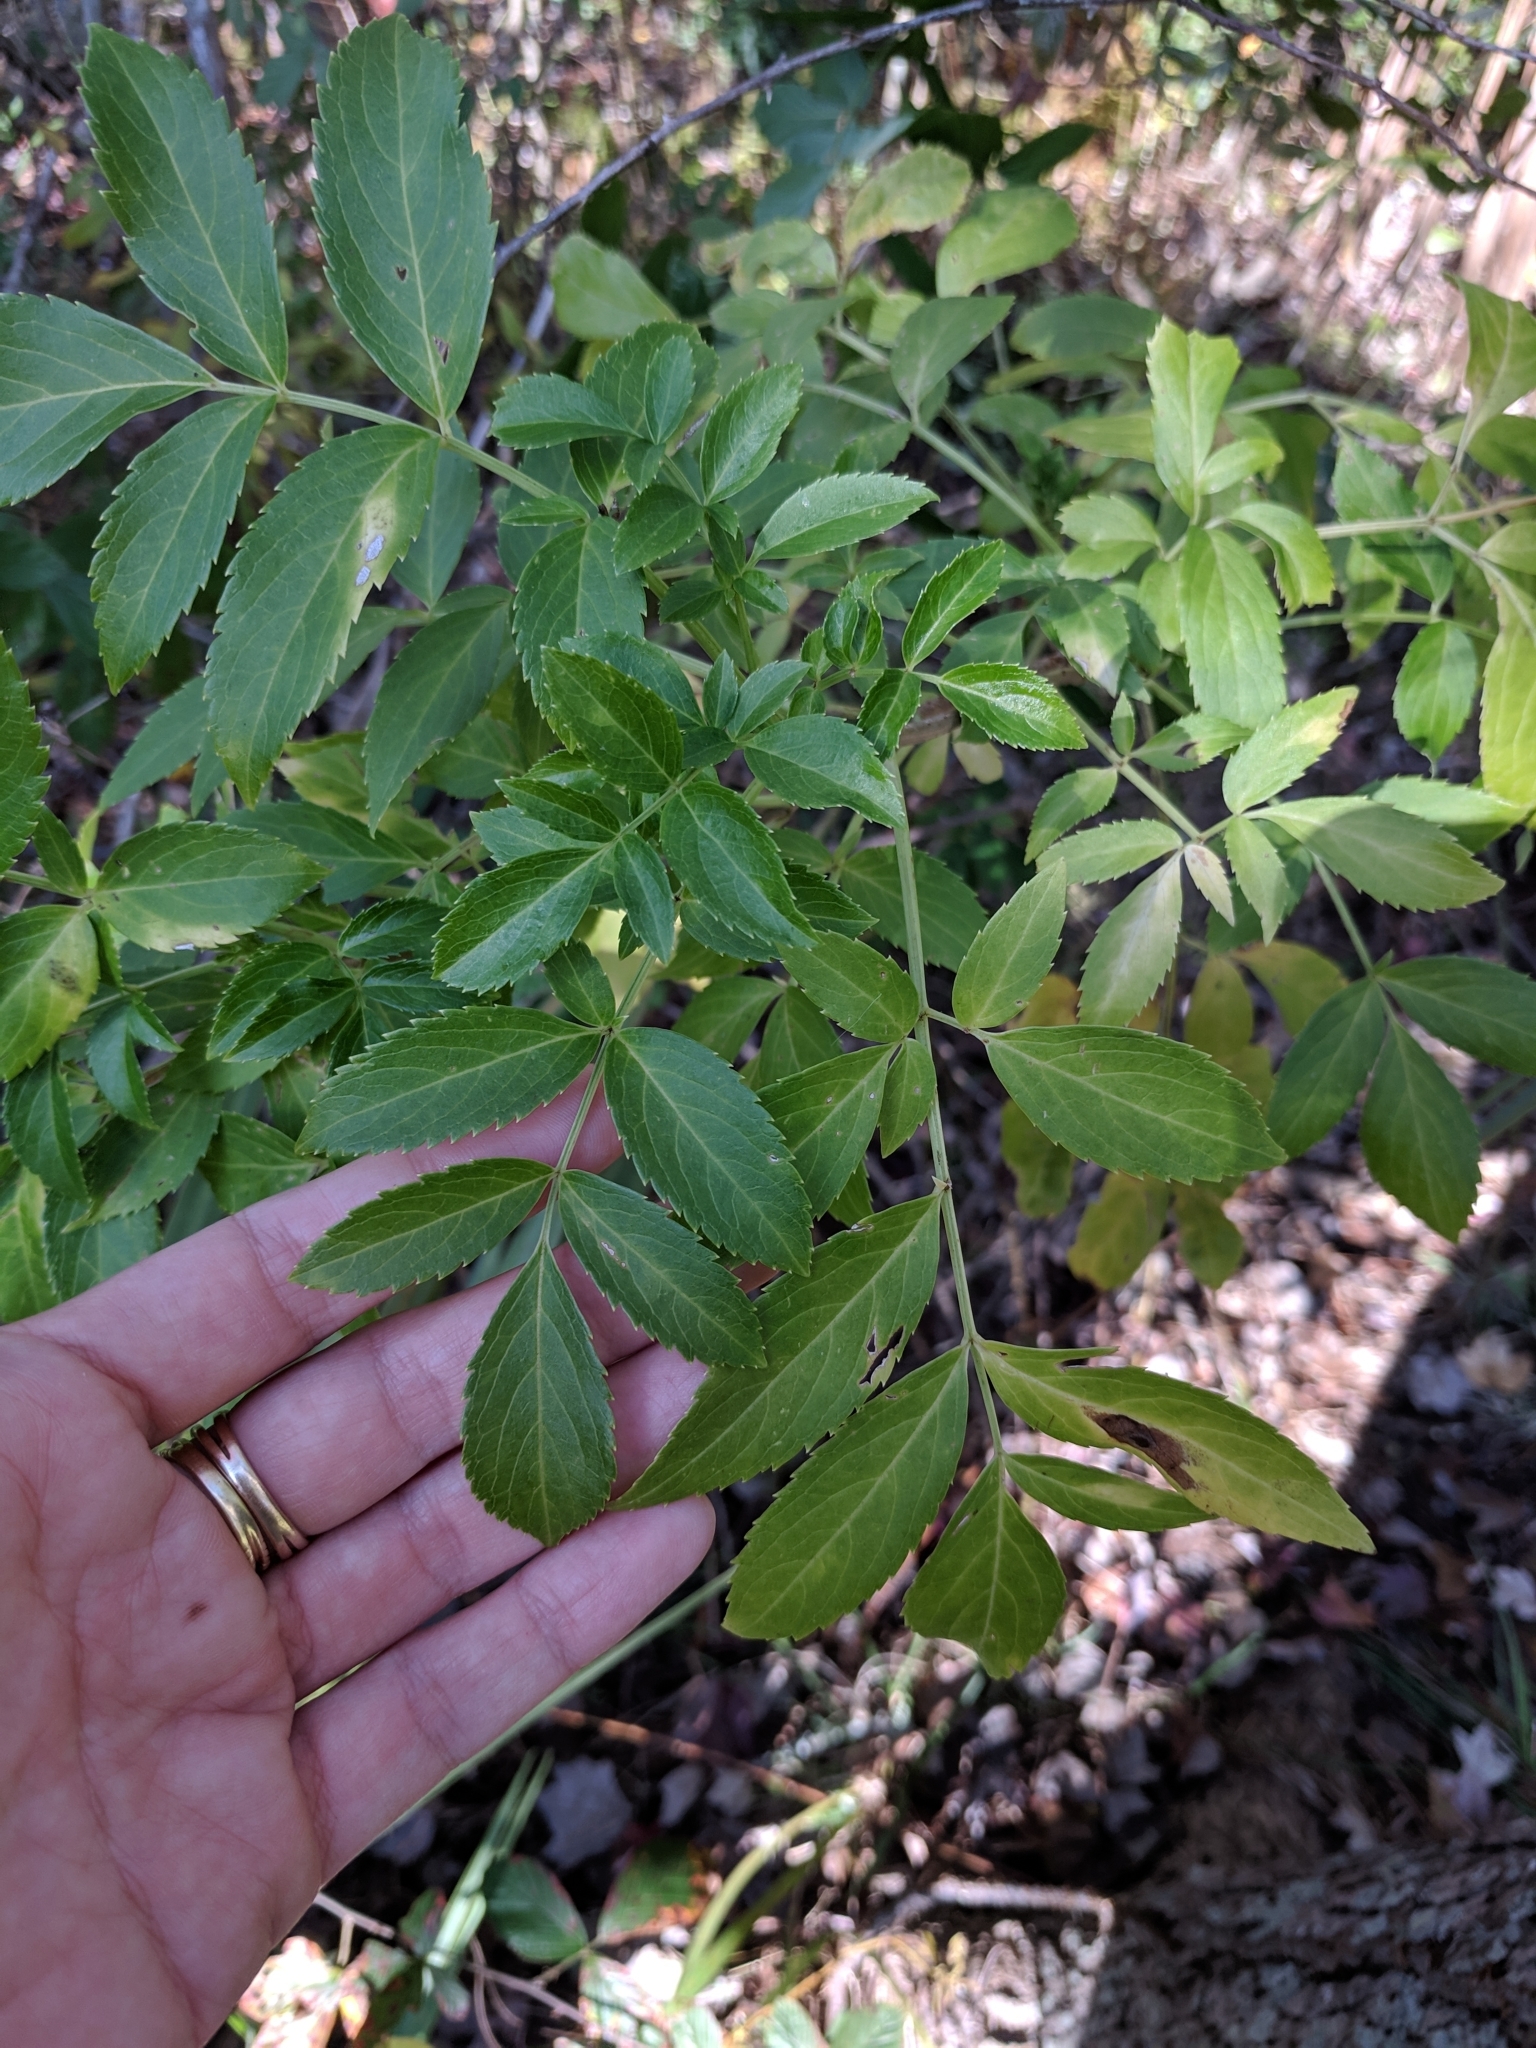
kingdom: Plantae
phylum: Tracheophyta
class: Magnoliopsida
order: Dipsacales
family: Viburnaceae
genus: Sambucus
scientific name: Sambucus canadensis
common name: American elder
